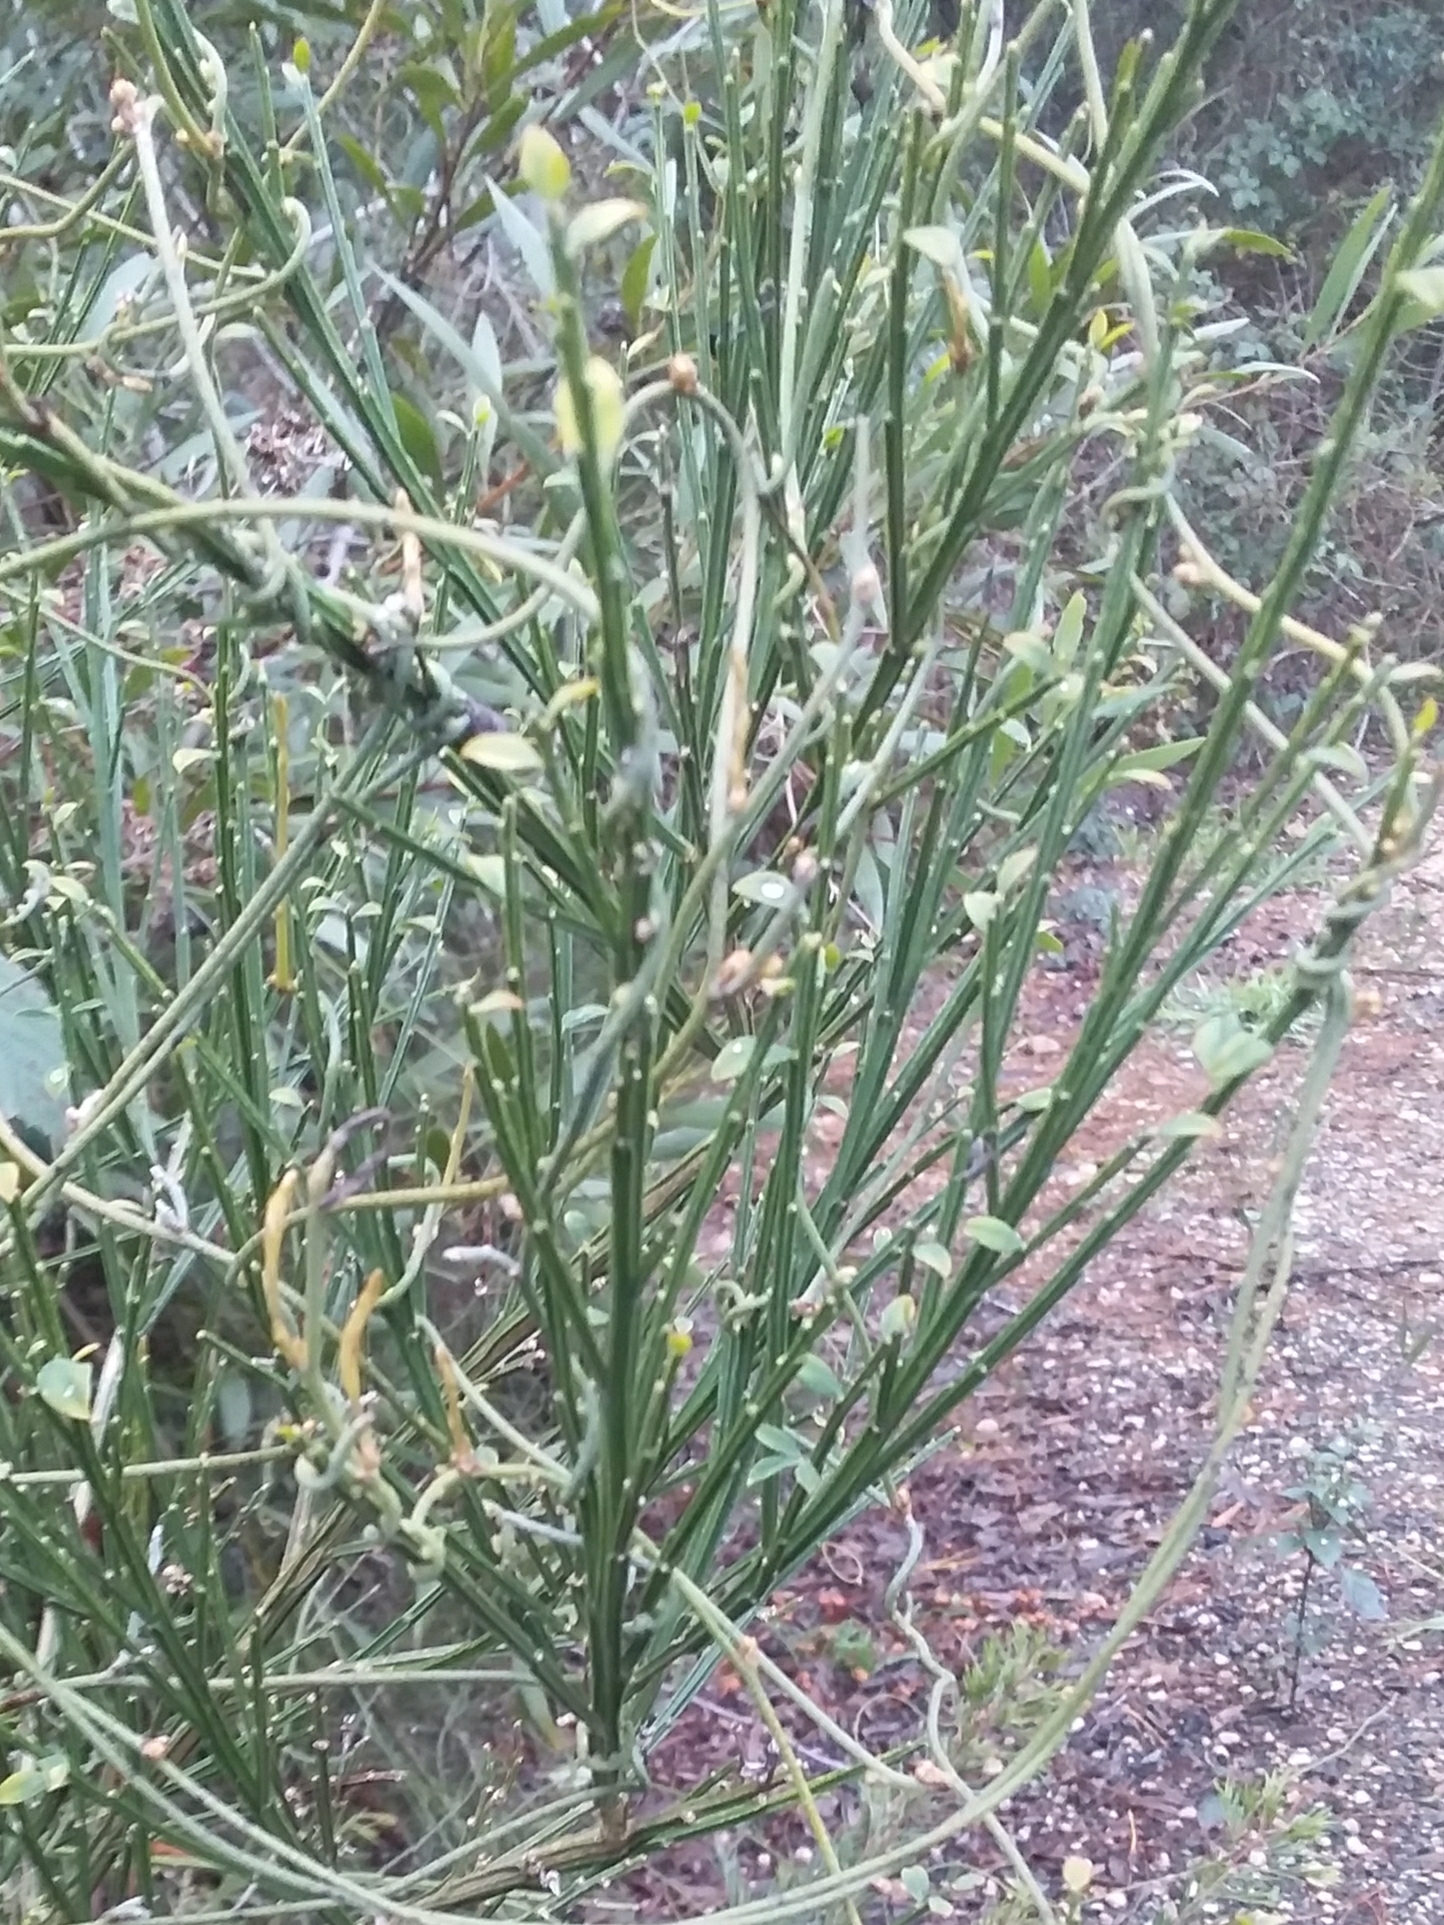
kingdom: Plantae
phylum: Tracheophyta
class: Magnoliopsida
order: Fabales
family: Fabaceae
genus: Cytisus
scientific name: Cytisus scoparius
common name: Scotch broom
